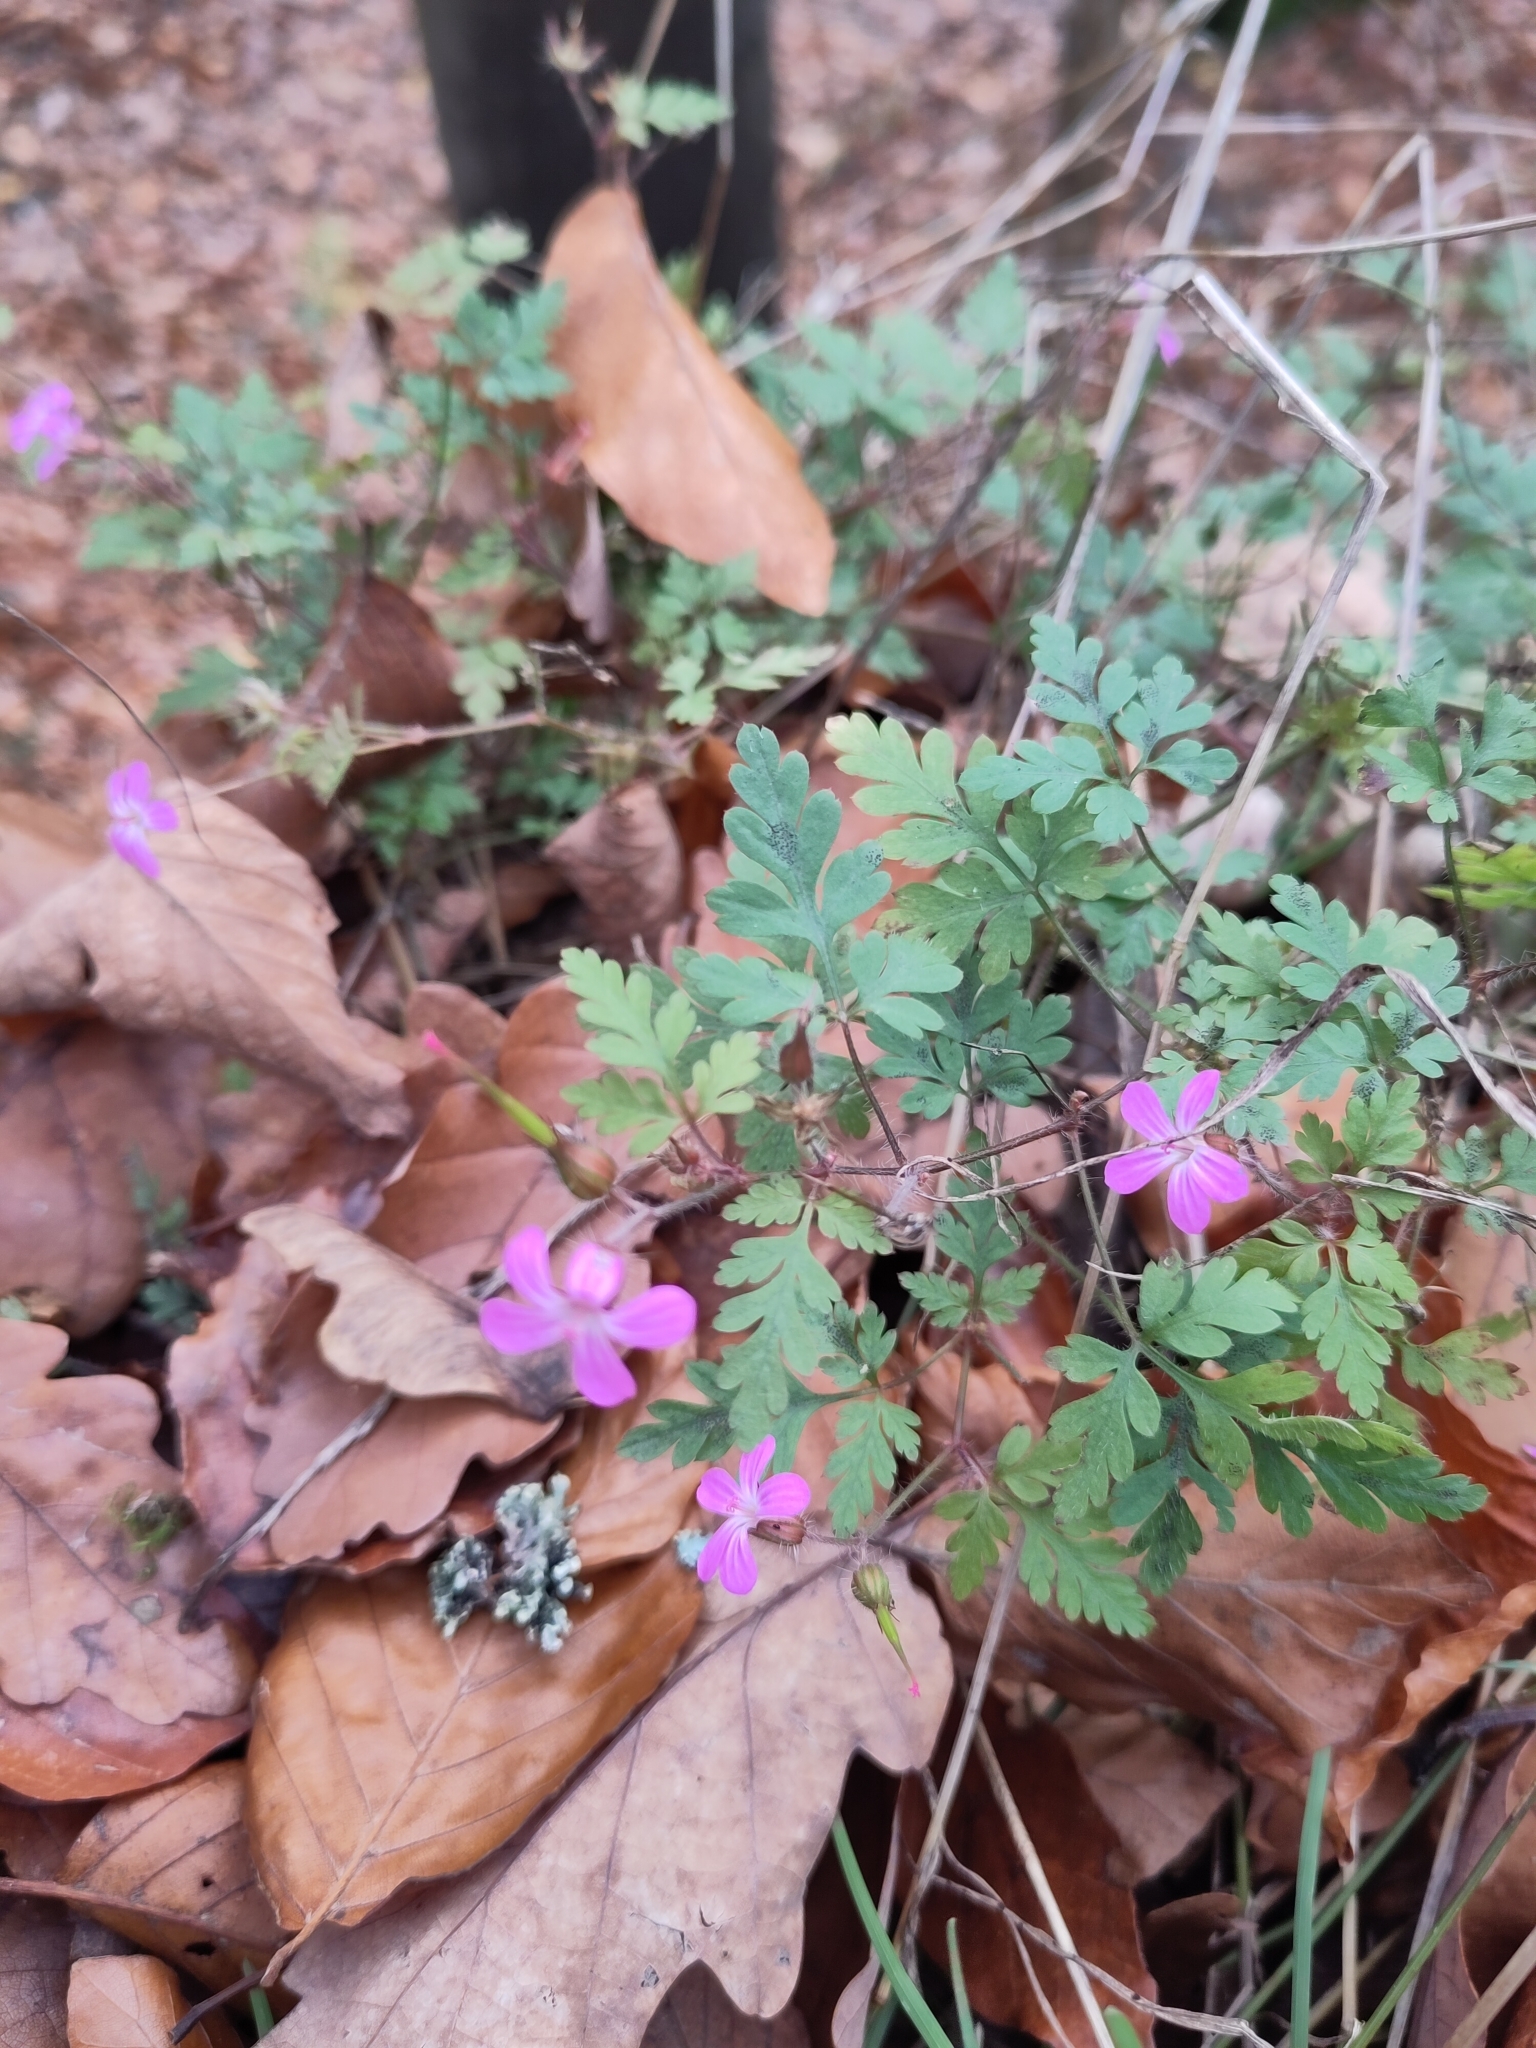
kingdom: Plantae
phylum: Tracheophyta
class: Magnoliopsida
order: Geraniales
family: Geraniaceae
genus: Geranium
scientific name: Geranium robertianum
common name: Herb-robert
